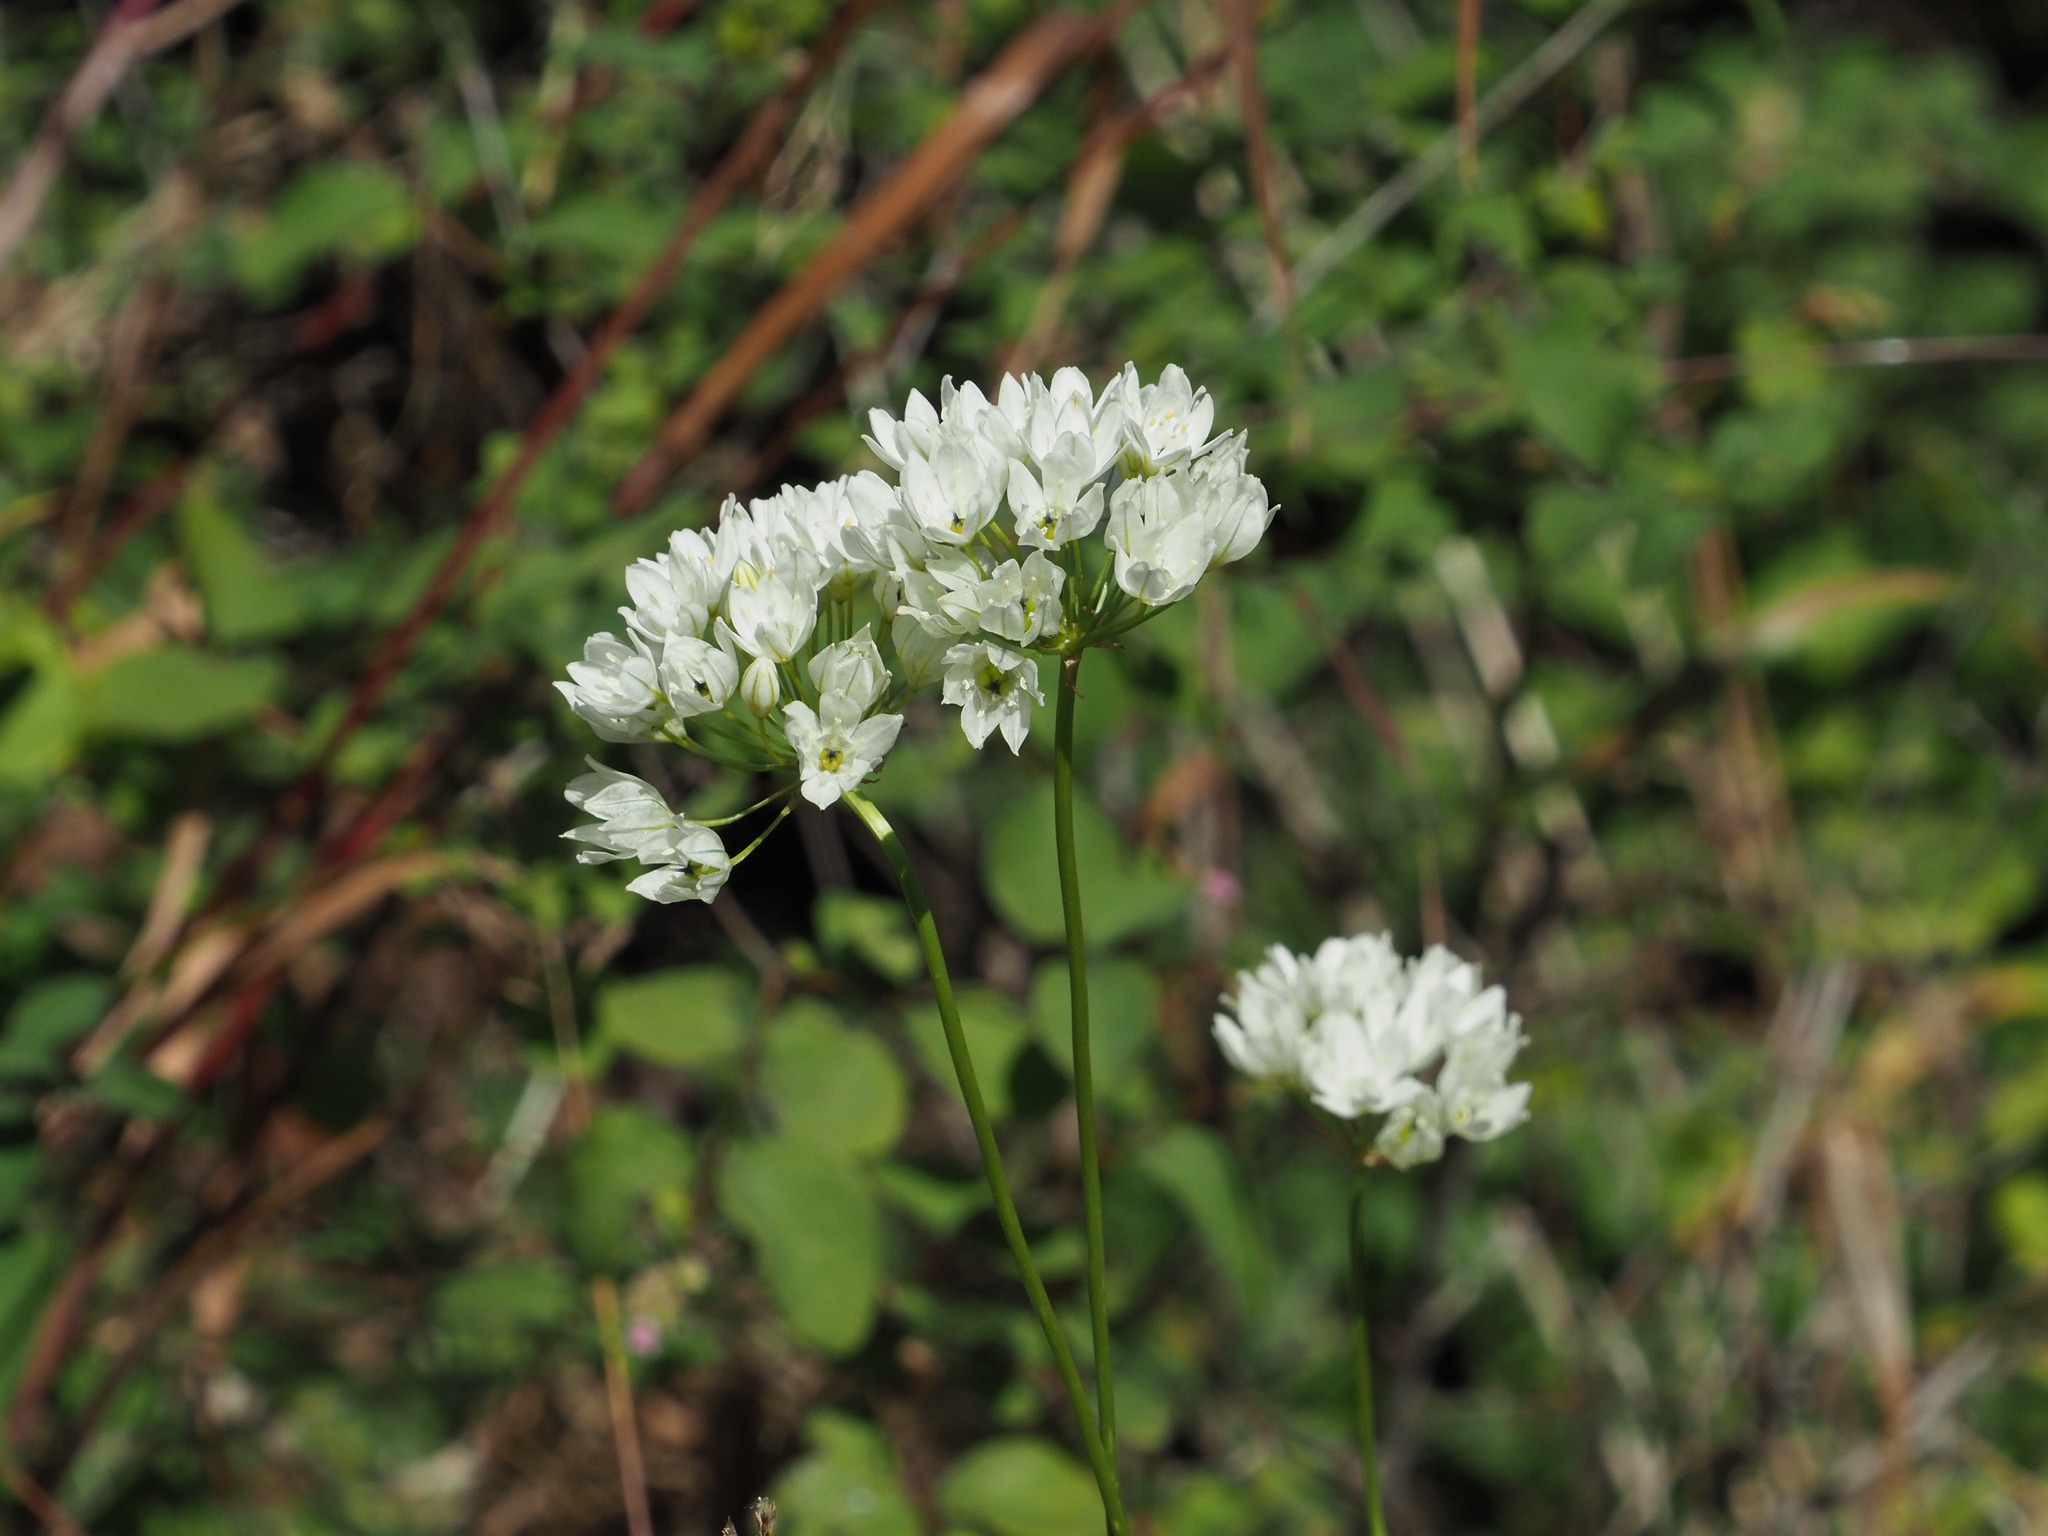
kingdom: Plantae
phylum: Tracheophyta
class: Liliopsida
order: Asparagales
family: Asparagaceae
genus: Triteleia
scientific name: Triteleia hyacinthina
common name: White brodiaea
